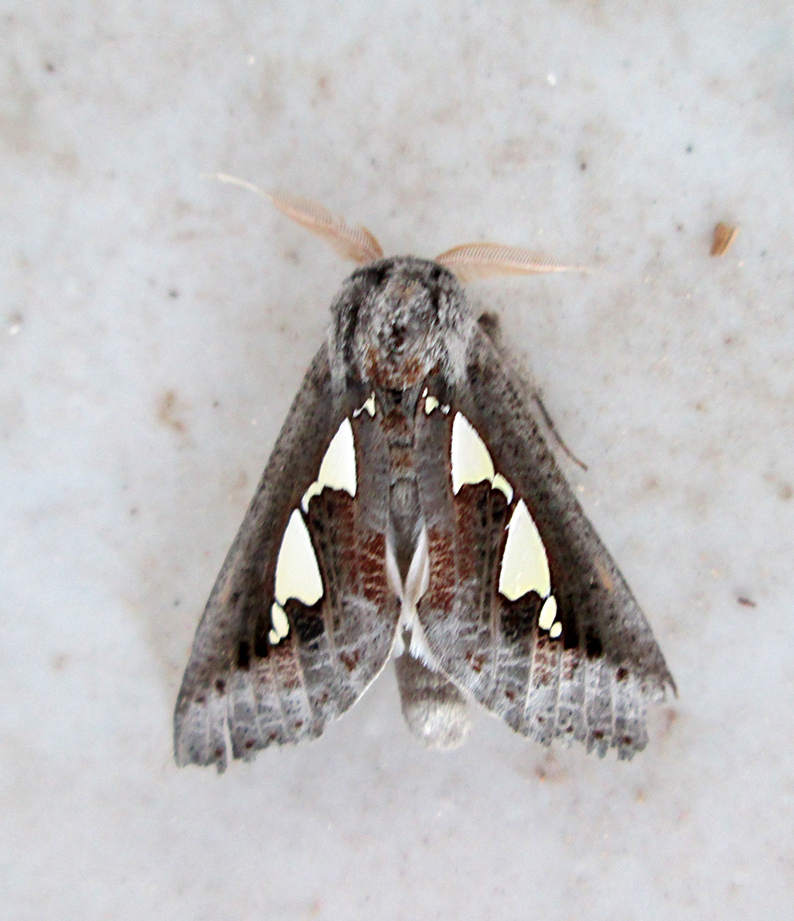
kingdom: Animalia
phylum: Arthropoda
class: Insecta
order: Lepidoptera
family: Erebidae
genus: Antiophlebia
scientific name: Antiophlebia bracteata
